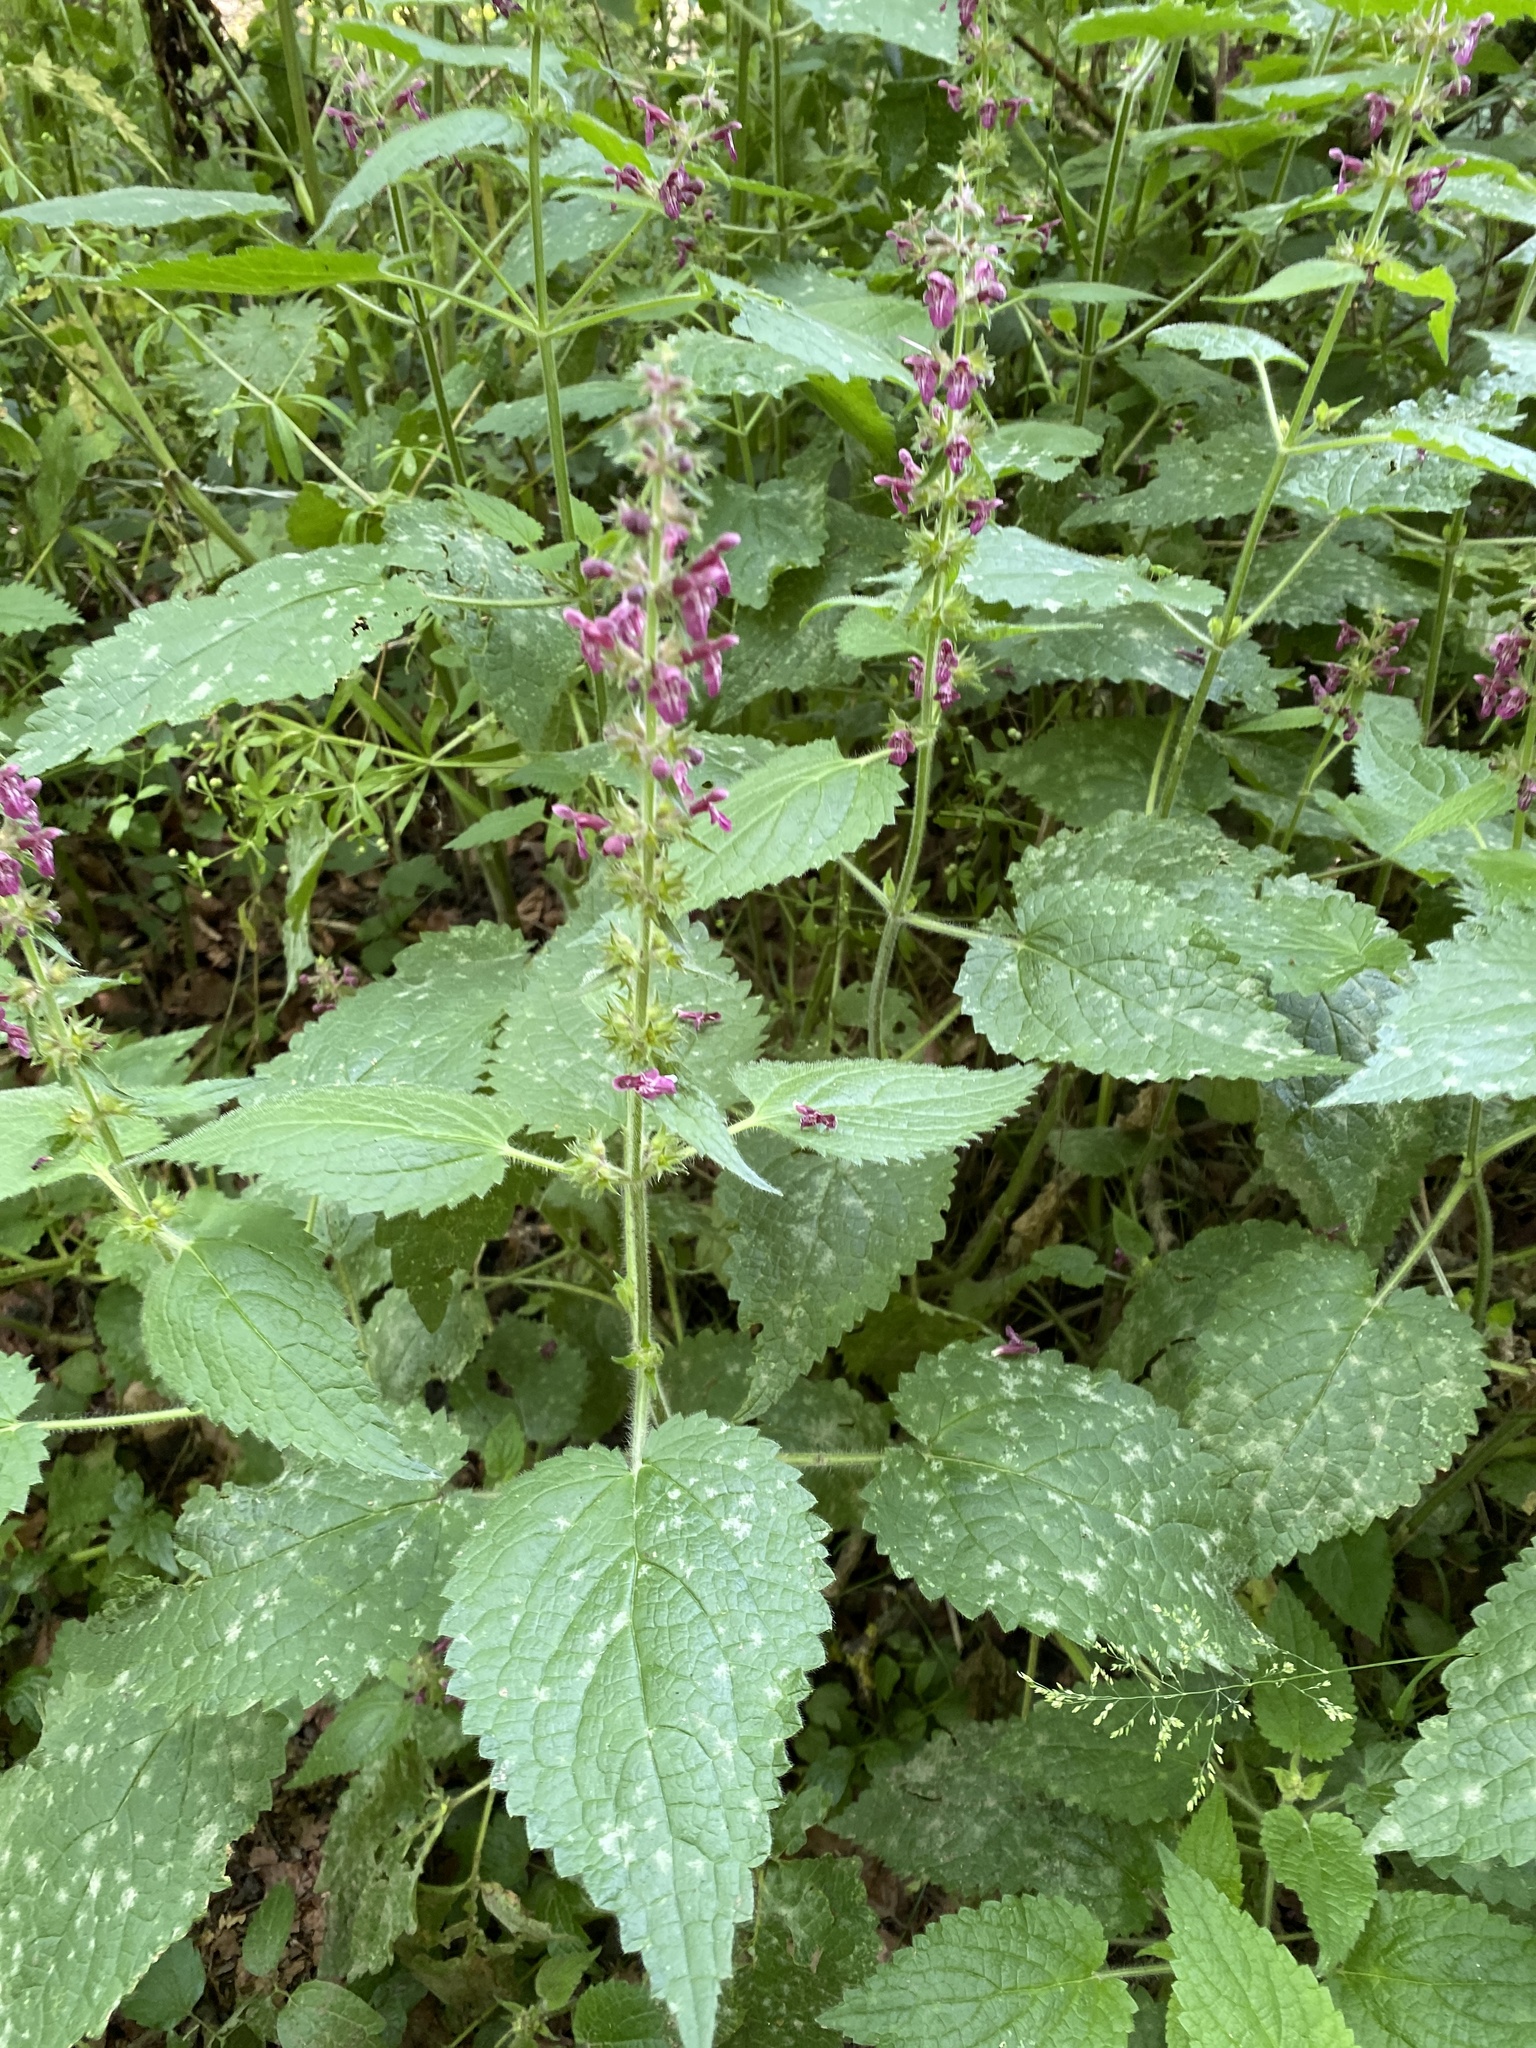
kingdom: Plantae
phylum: Tracheophyta
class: Magnoliopsida
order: Lamiales
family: Lamiaceae
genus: Stachys
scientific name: Stachys sylvatica
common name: Hedge woundwort
